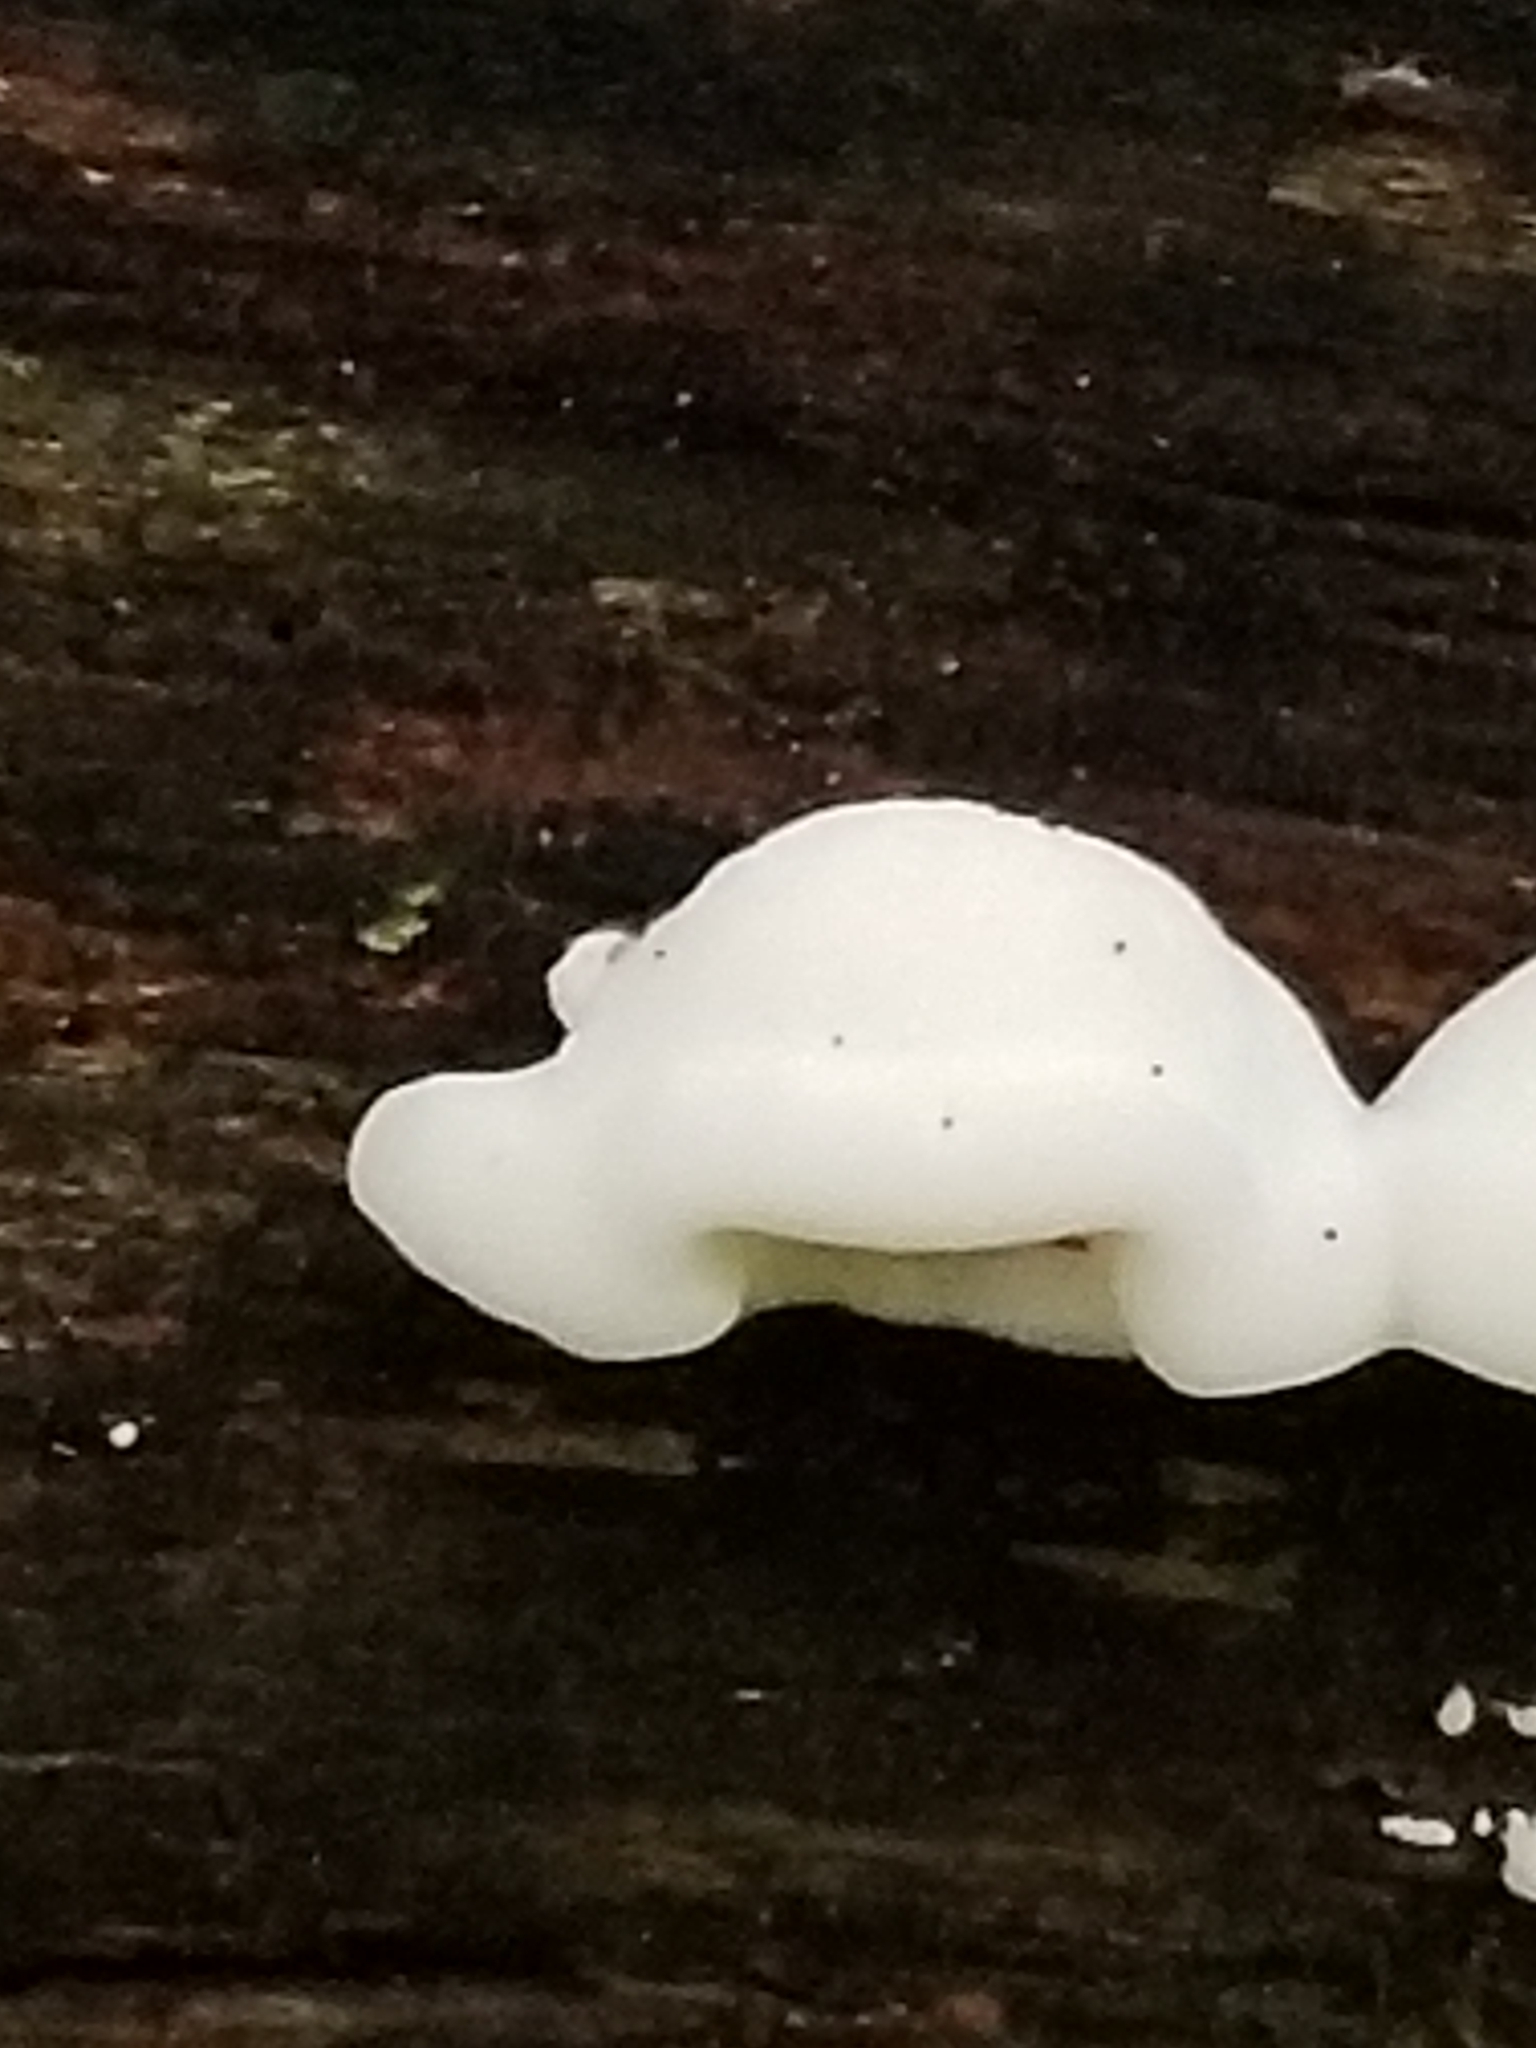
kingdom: Fungi
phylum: Basidiomycota
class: Agaricomycetes
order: Polyporales
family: Incrustoporiaceae
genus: Tyromyces
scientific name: Tyromyces chioneus
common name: White cheese polypore
